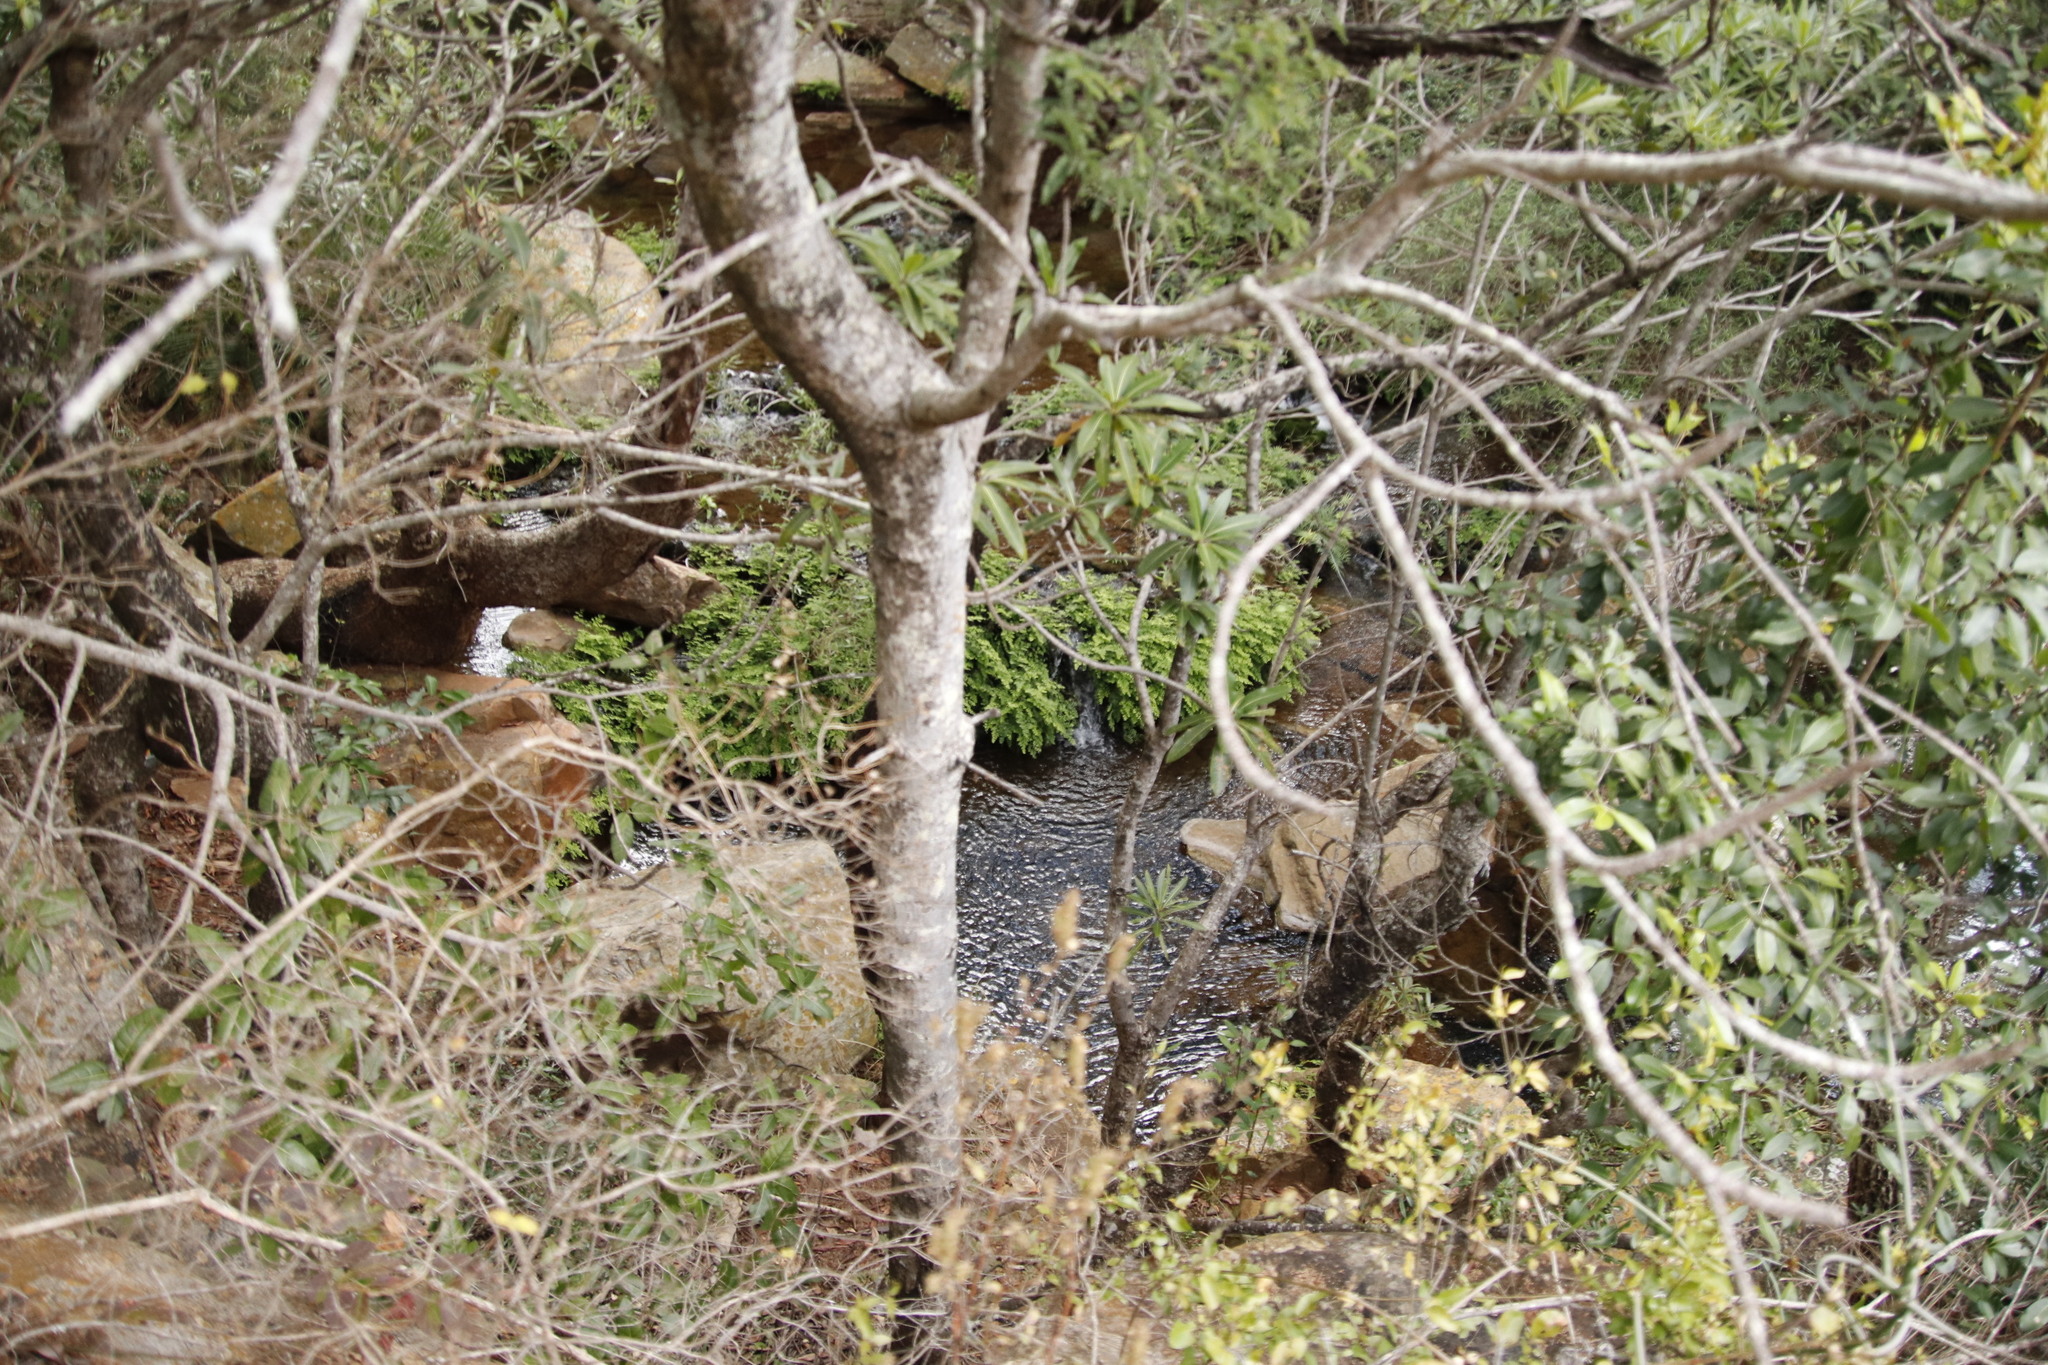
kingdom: Plantae
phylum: Tracheophyta
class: Polypodiopsida
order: Polypodiales
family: Pteridaceae
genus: Adiantum
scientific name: Adiantum capillus-veneris
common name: Maidenhair fern
